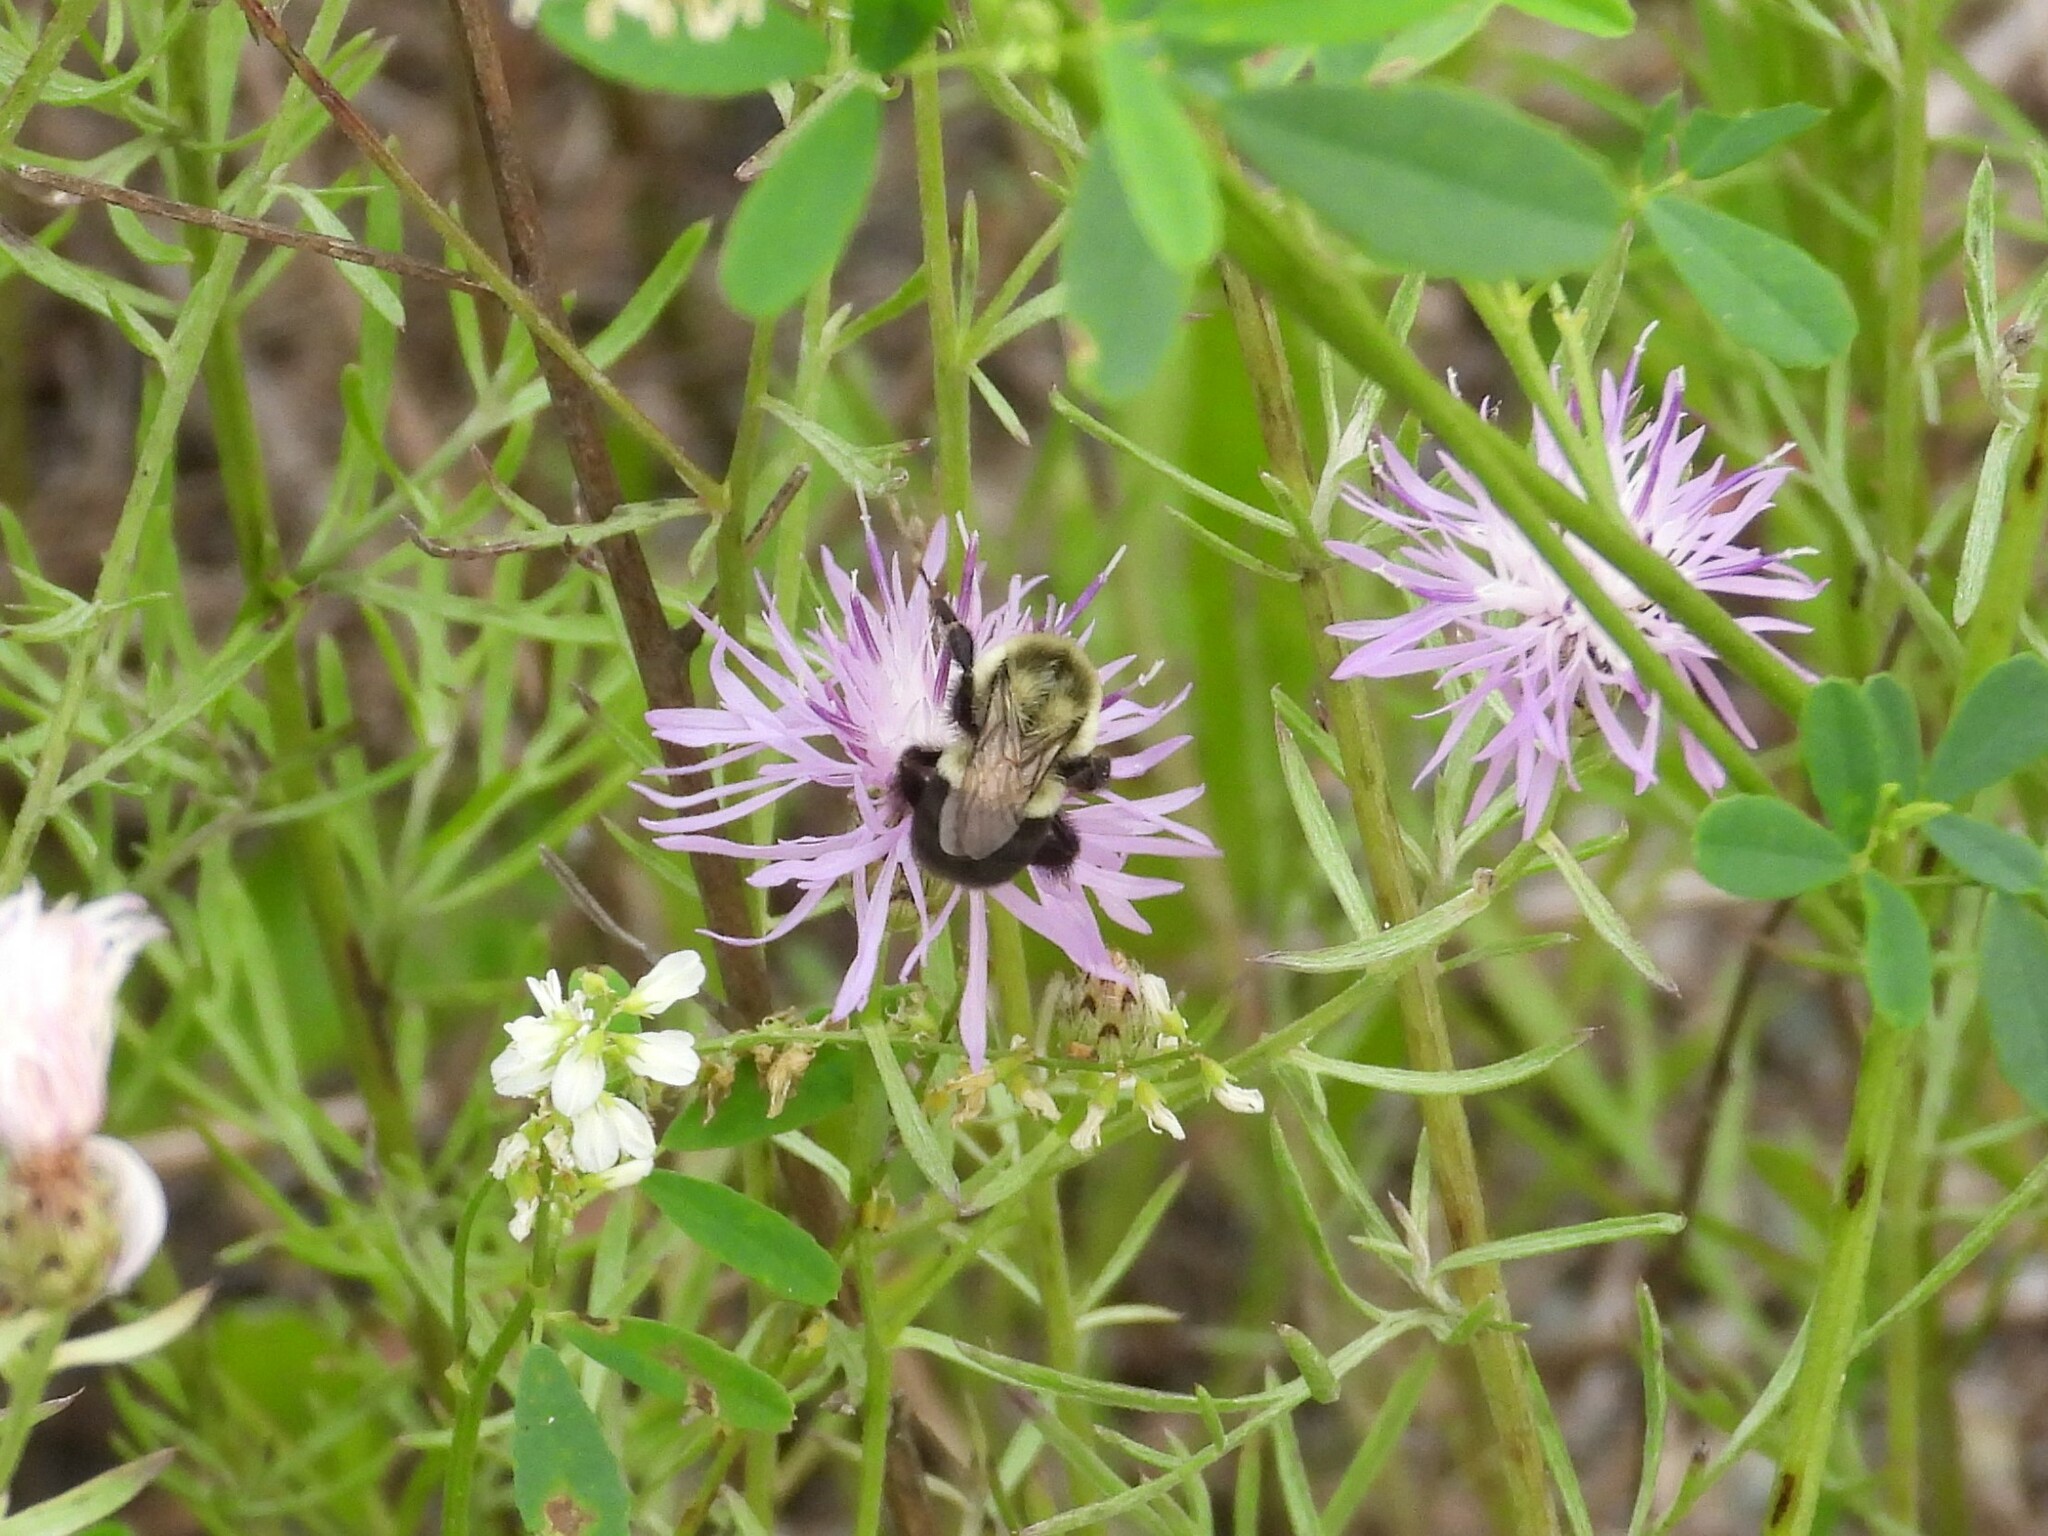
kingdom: Animalia
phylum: Arthropoda
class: Insecta
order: Hymenoptera
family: Apidae
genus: Bombus
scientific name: Bombus impatiens
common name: Common eastern bumble bee
